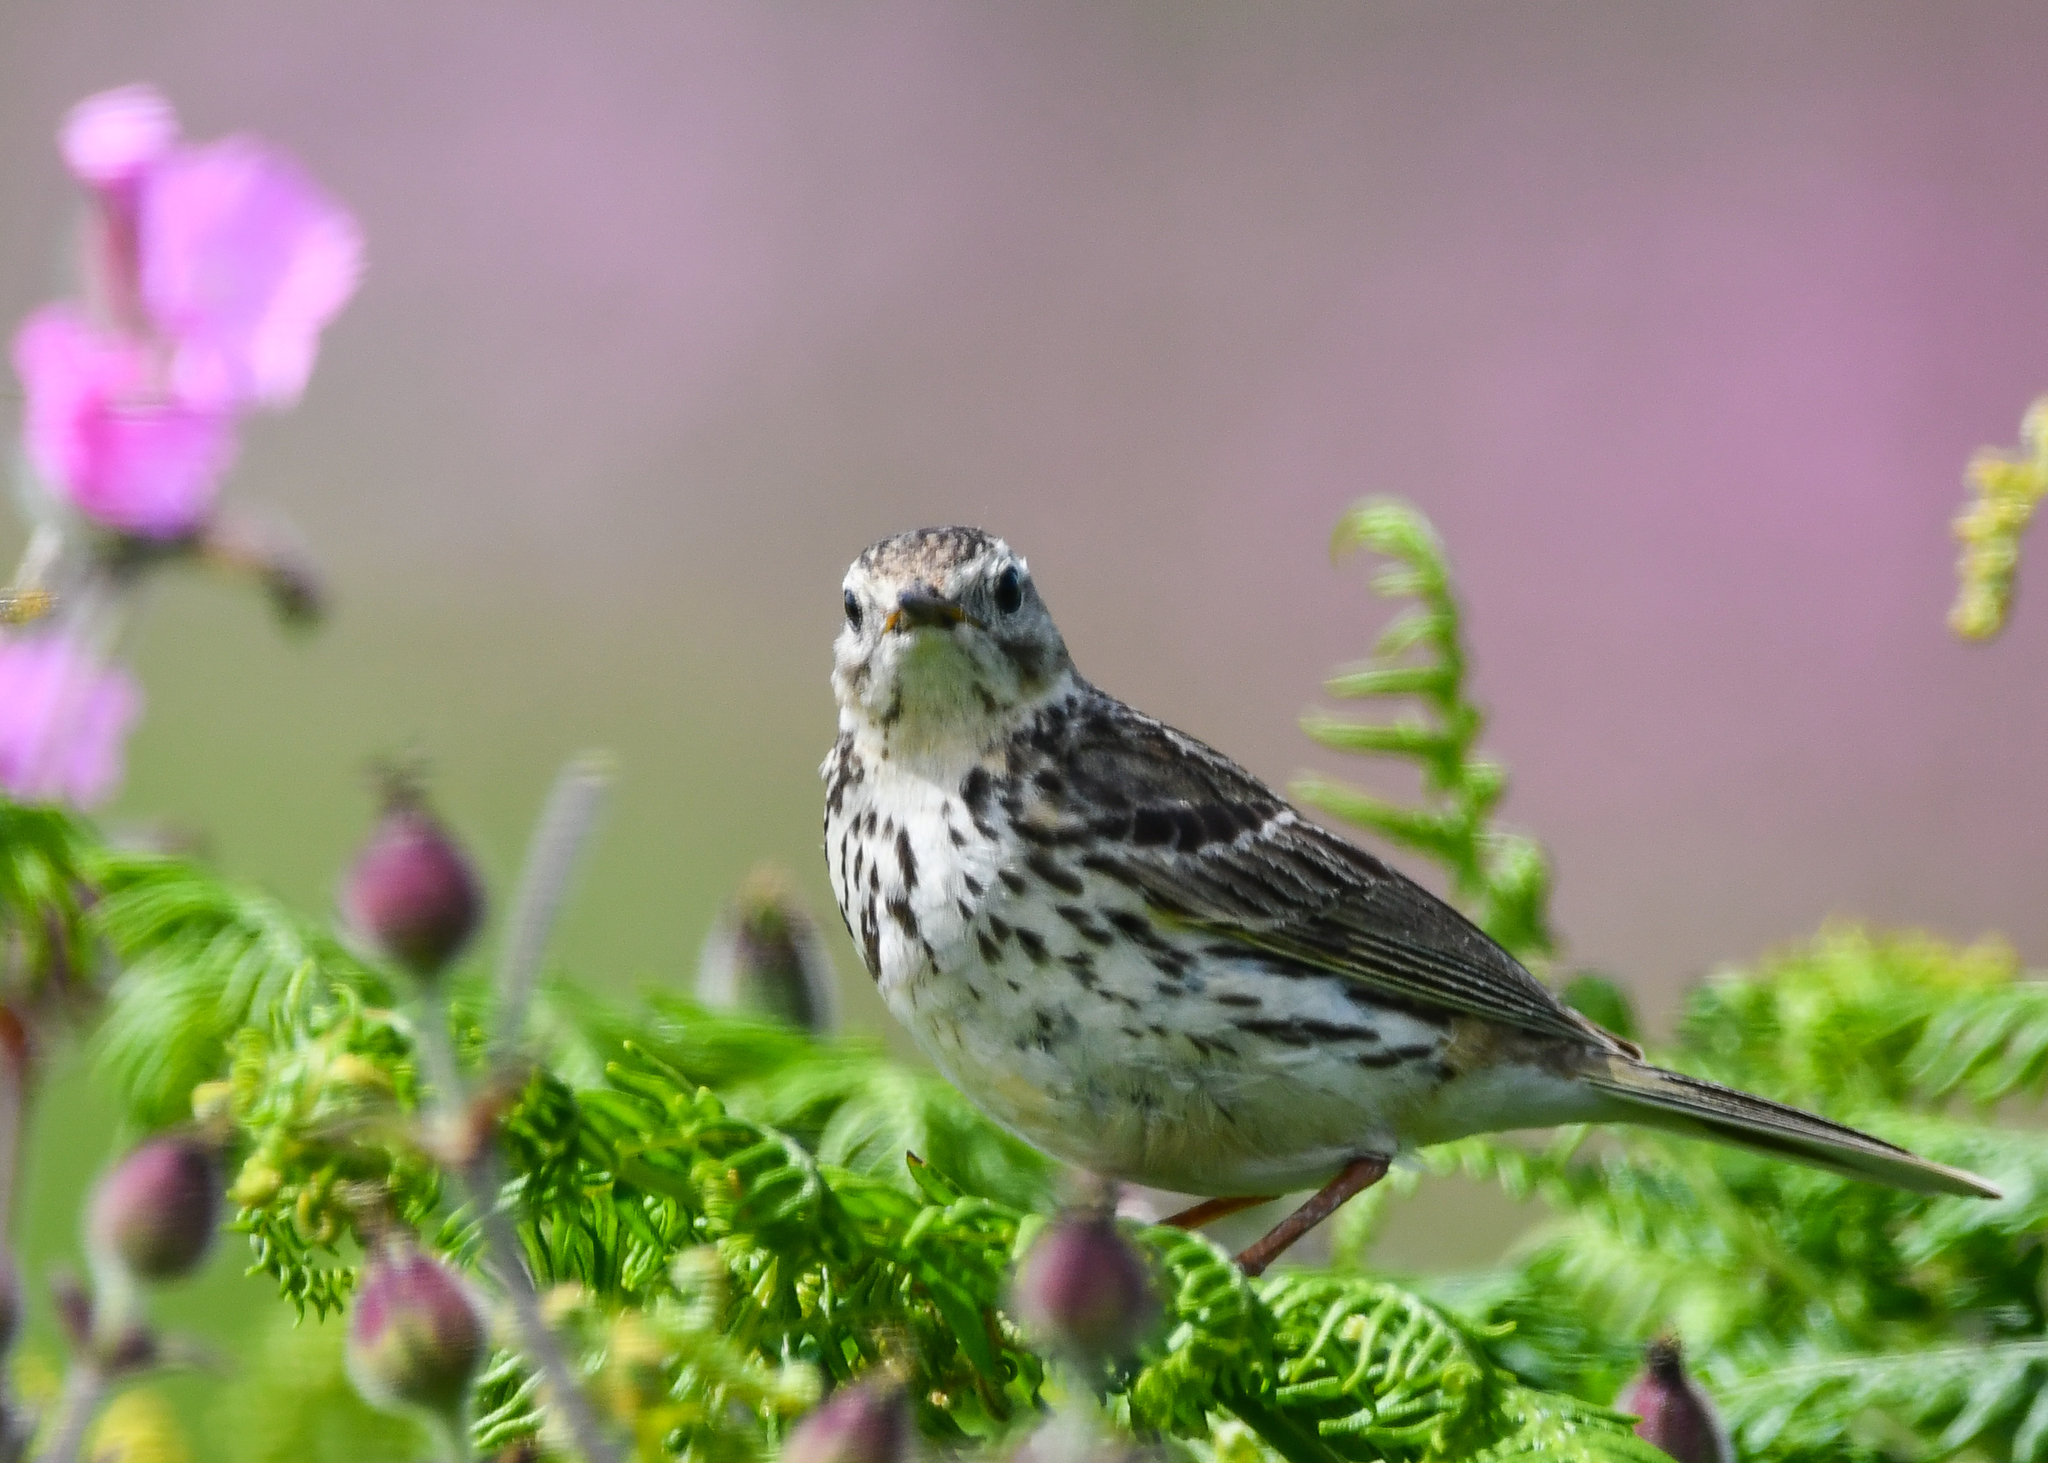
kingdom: Animalia
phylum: Chordata
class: Aves
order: Passeriformes
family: Motacillidae
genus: Anthus
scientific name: Anthus pratensis
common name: Meadow pipit
